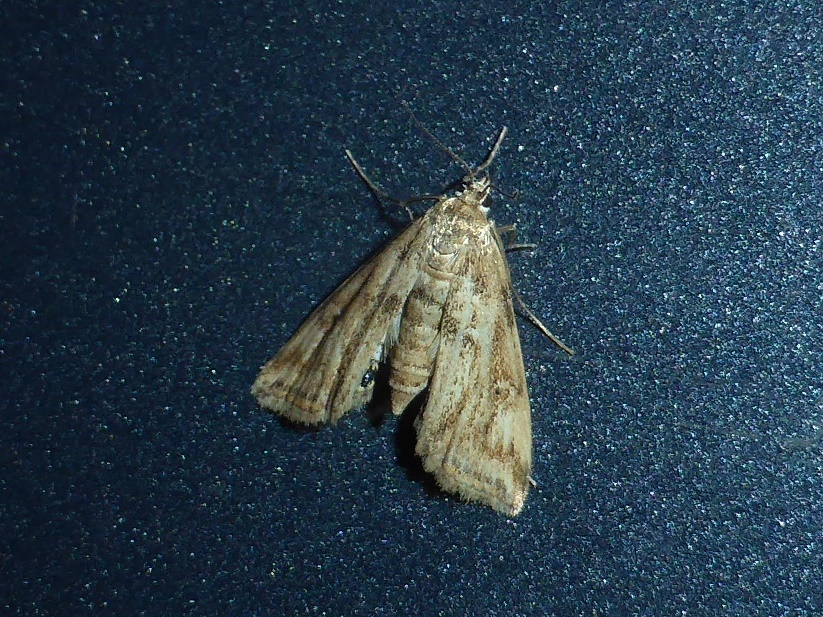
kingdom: Animalia
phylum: Arthropoda
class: Insecta
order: Lepidoptera
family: Crambidae
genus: Cataclysta
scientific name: Cataclysta lemnata
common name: Small china-mark
